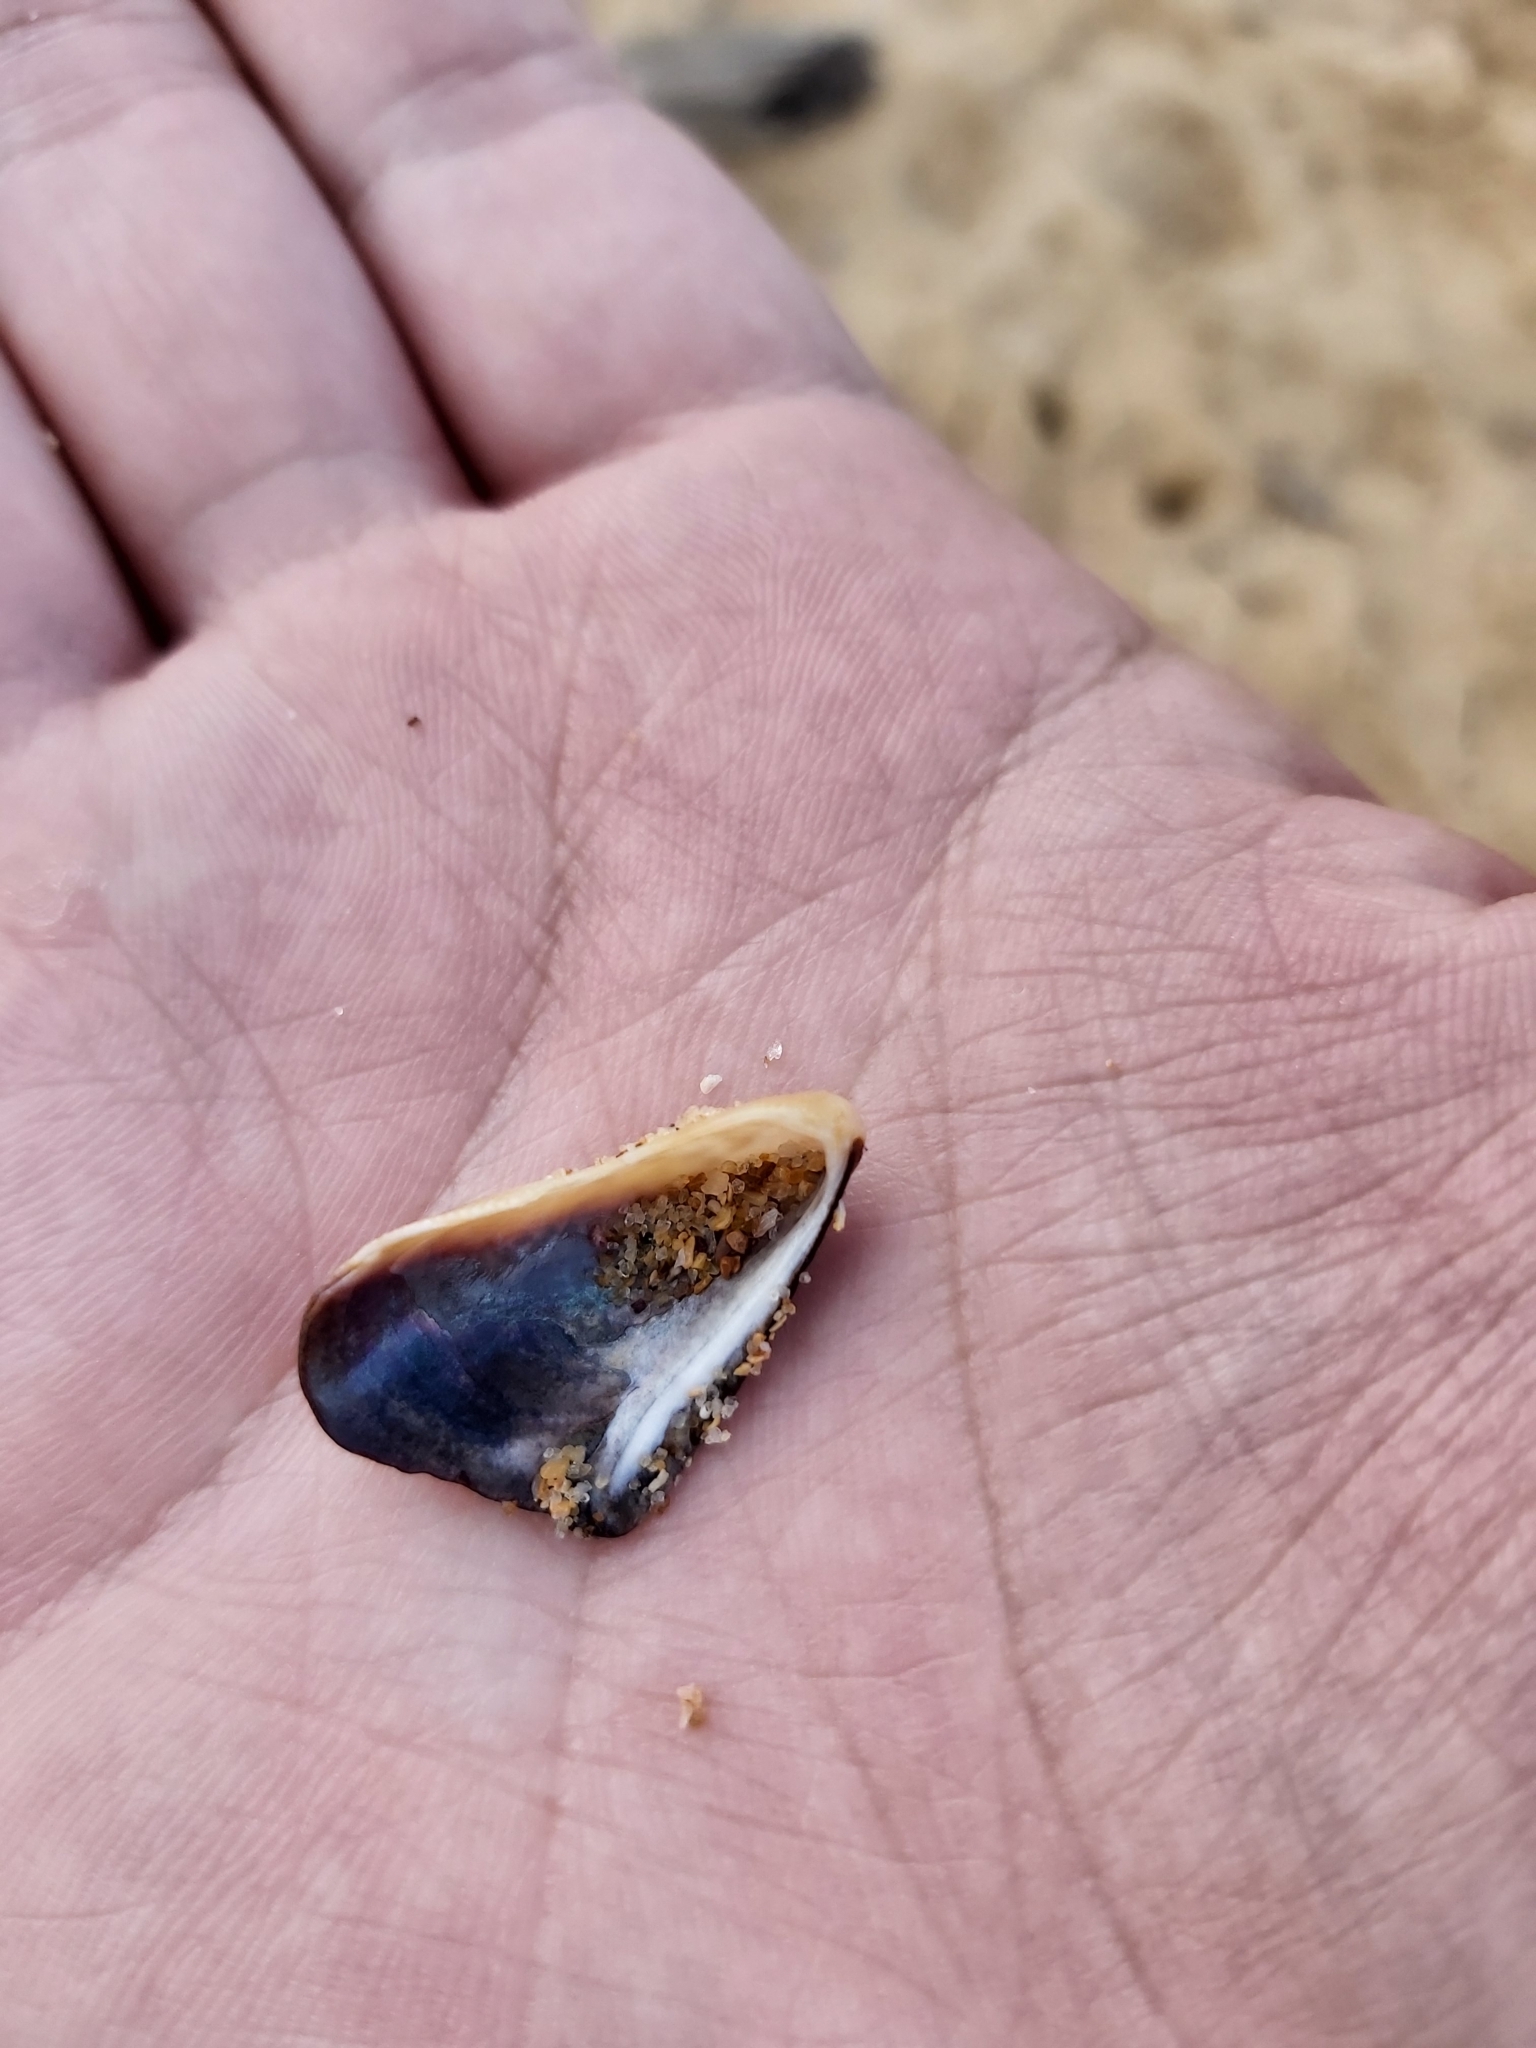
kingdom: Animalia
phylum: Mollusca
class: Bivalvia
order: Mytilida
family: Mytilidae
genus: Trichomya
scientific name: Trichomya hirsuta
